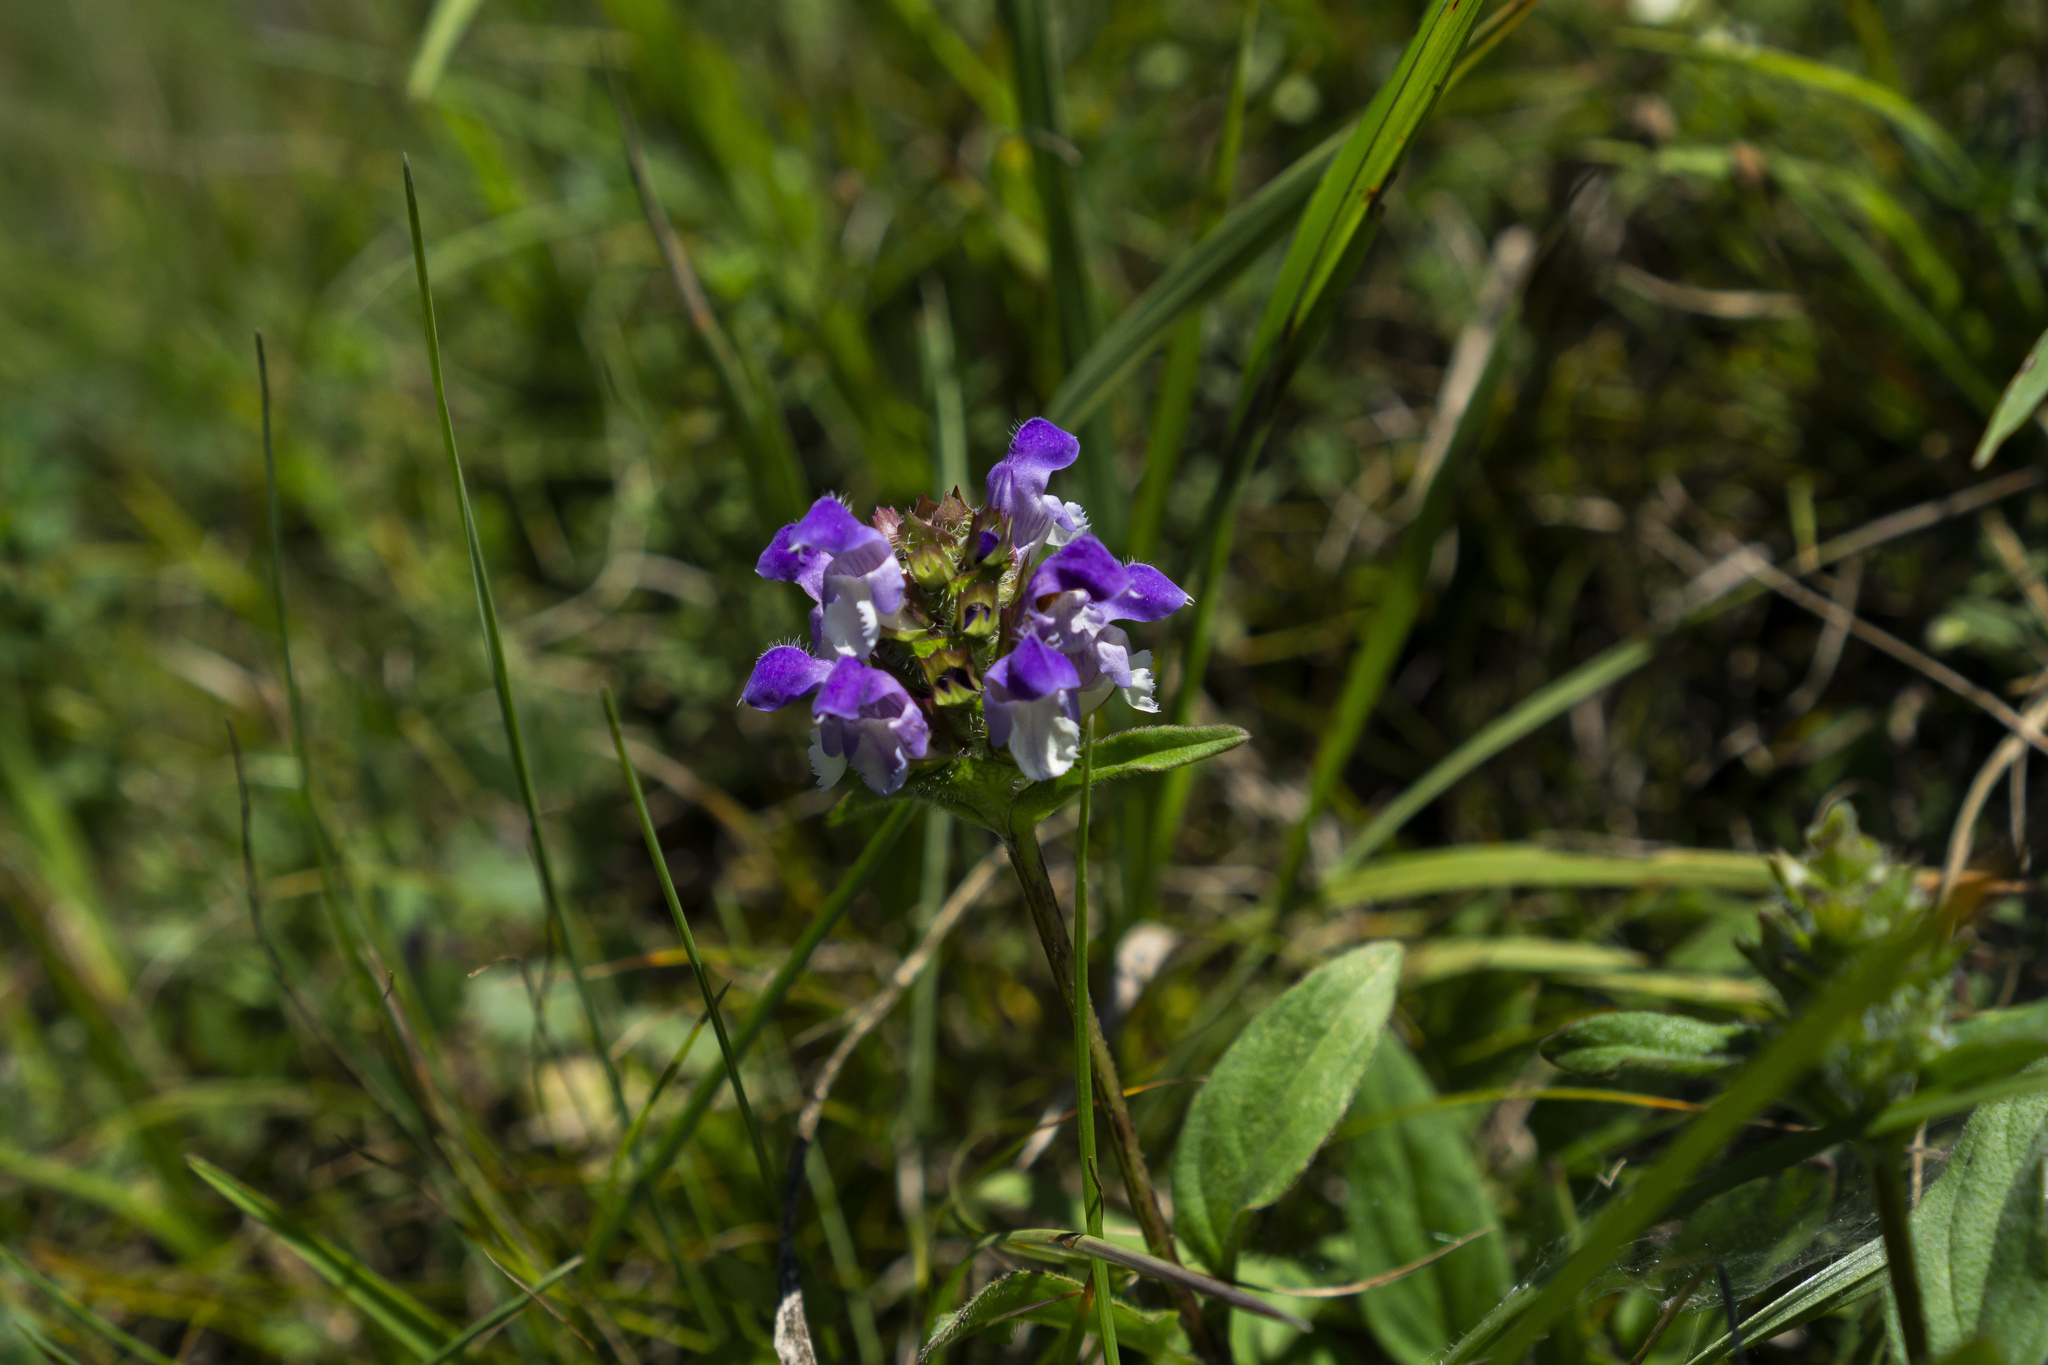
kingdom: Plantae
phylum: Tracheophyta
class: Magnoliopsida
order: Lamiales
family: Lamiaceae
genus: Prunella
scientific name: Prunella vulgaris
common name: Heal-all
